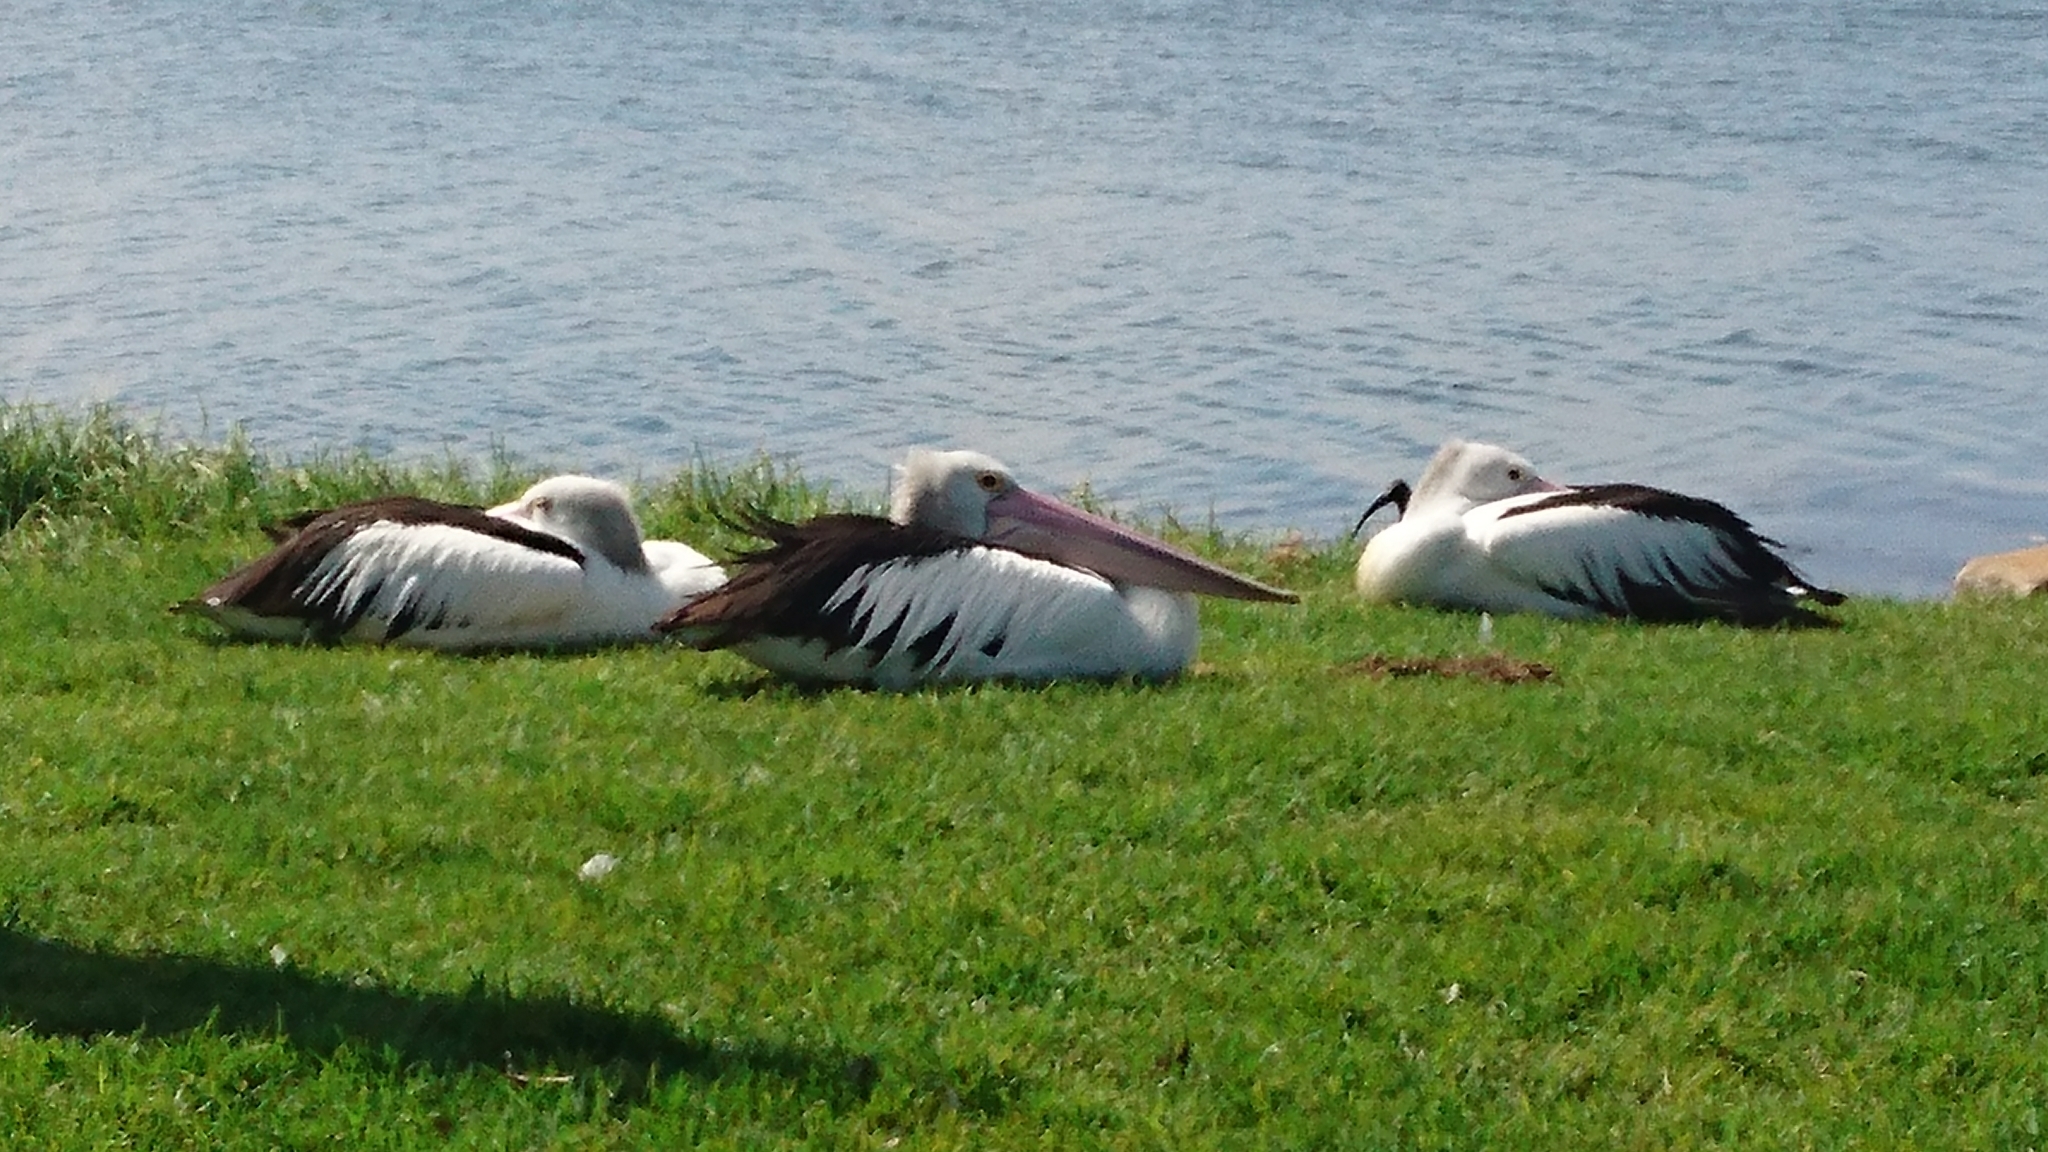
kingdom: Animalia
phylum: Chordata
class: Aves
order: Pelecaniformes
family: Pelecanidae
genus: Pelecanus
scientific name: Pelecanus conspicillatus
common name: Australian pelican
